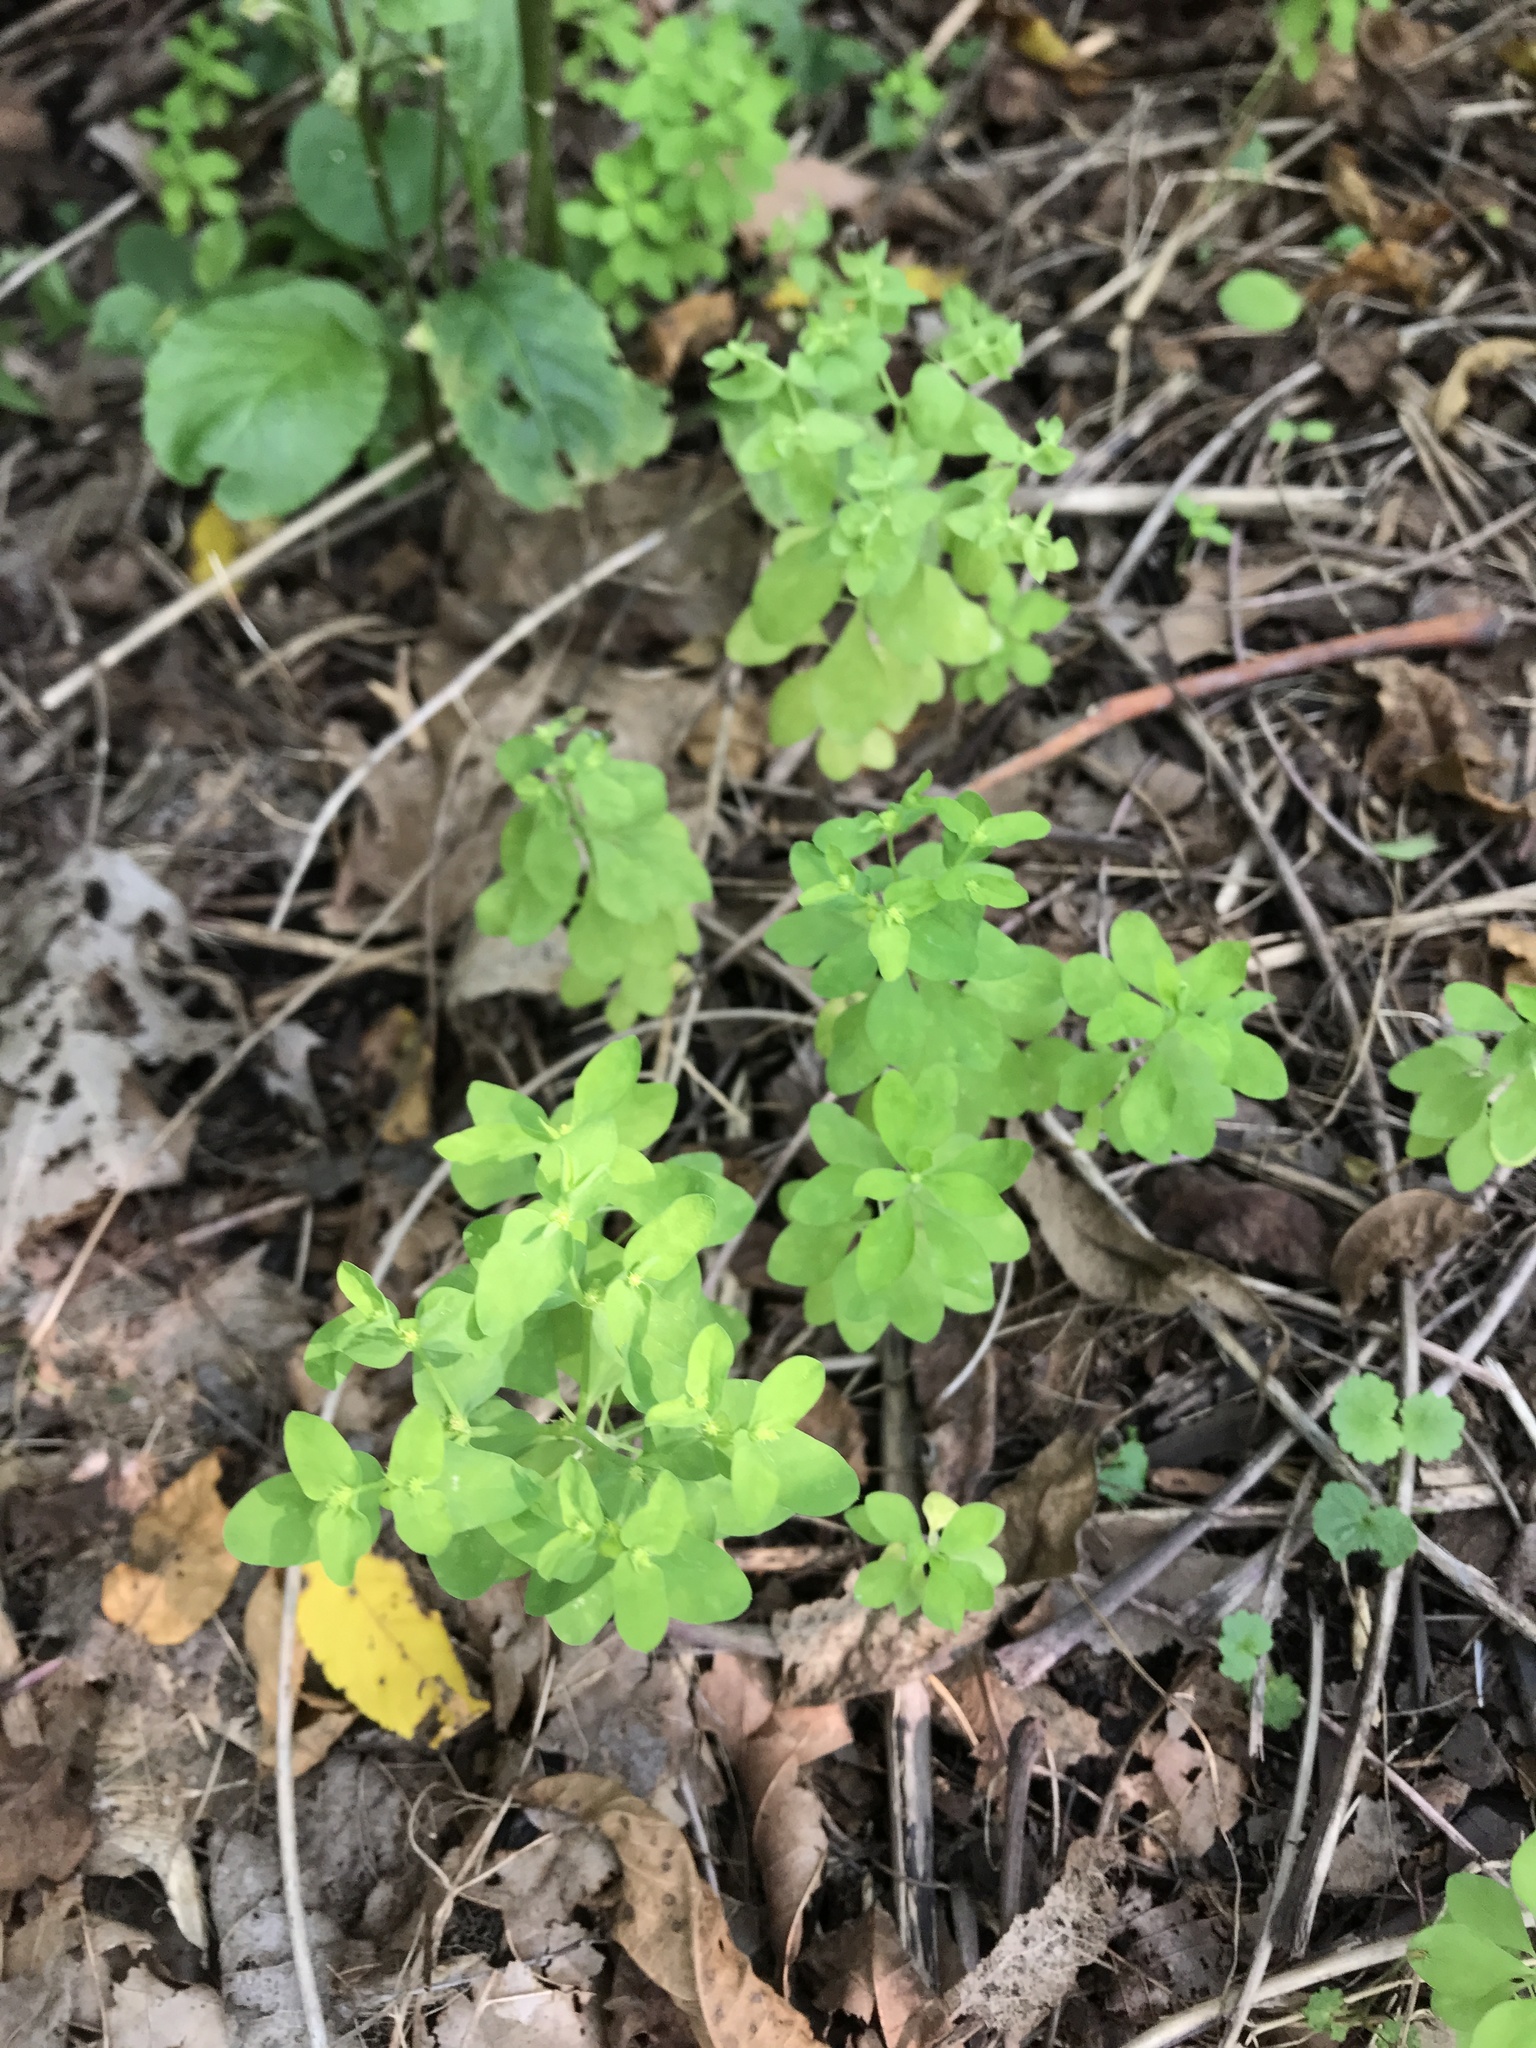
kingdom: Plantae
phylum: Tracheophyta
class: Magnoliopsida
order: Malpighiales
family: Euphorbiaceae
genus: Euphorbia
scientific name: Euphorbia peplus
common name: Petty spurge
